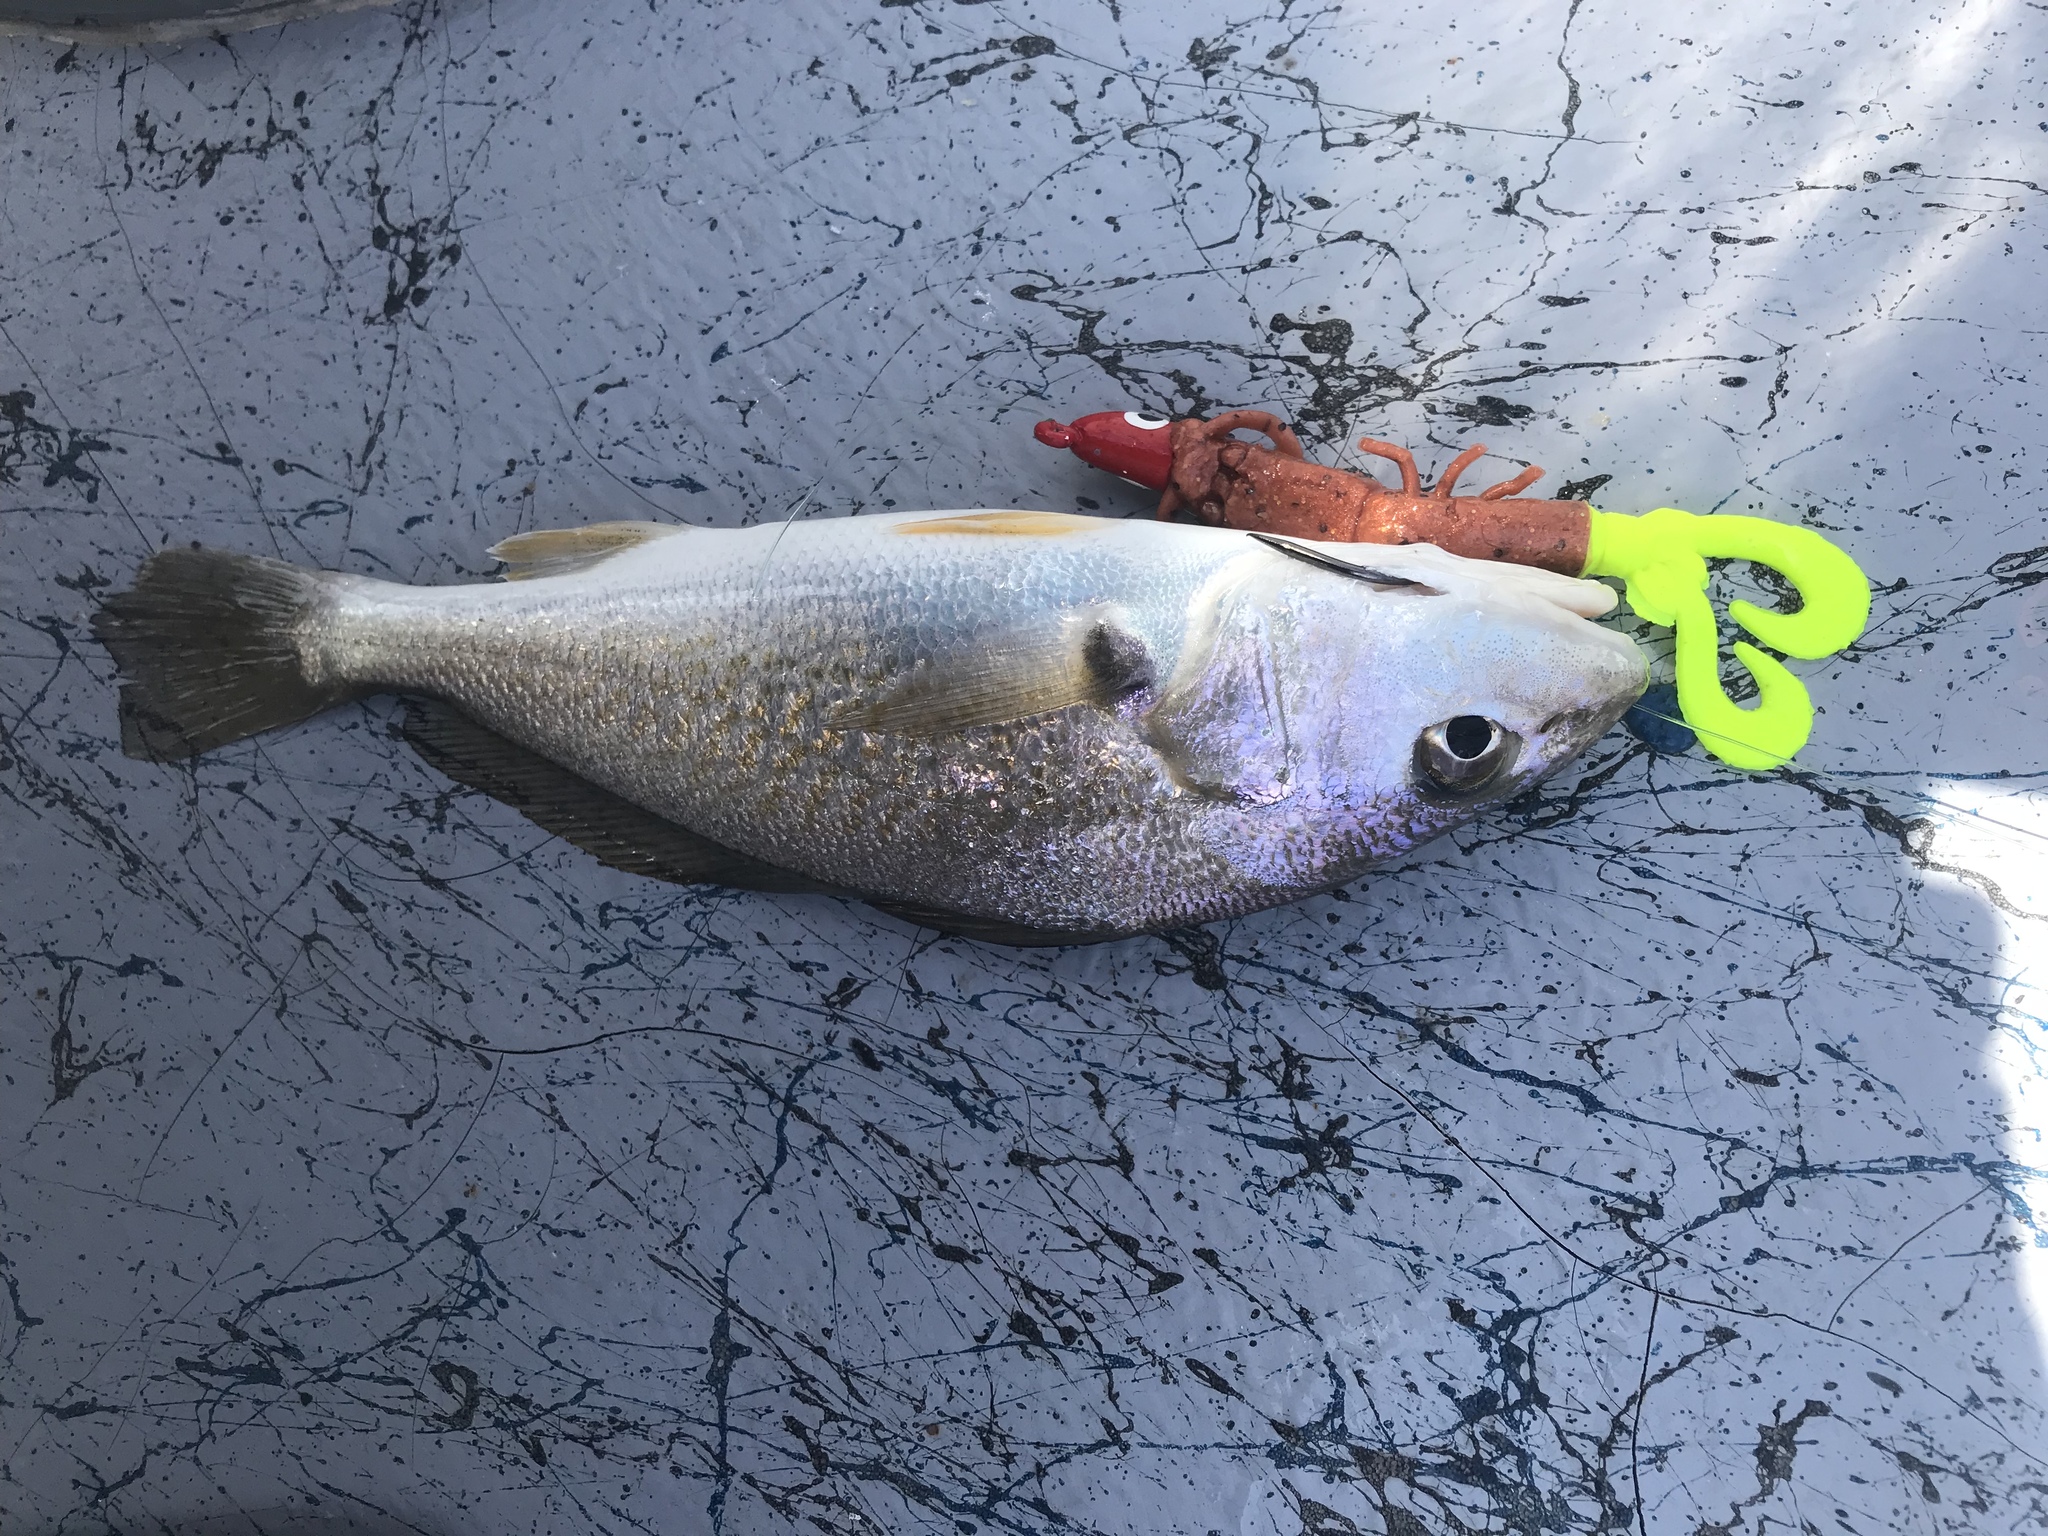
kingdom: Animalia
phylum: Chordata
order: Perciformes
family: Sciaenidae
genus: Micropogonias
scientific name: Micropogonias undulatus
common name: Atlantic croaker
